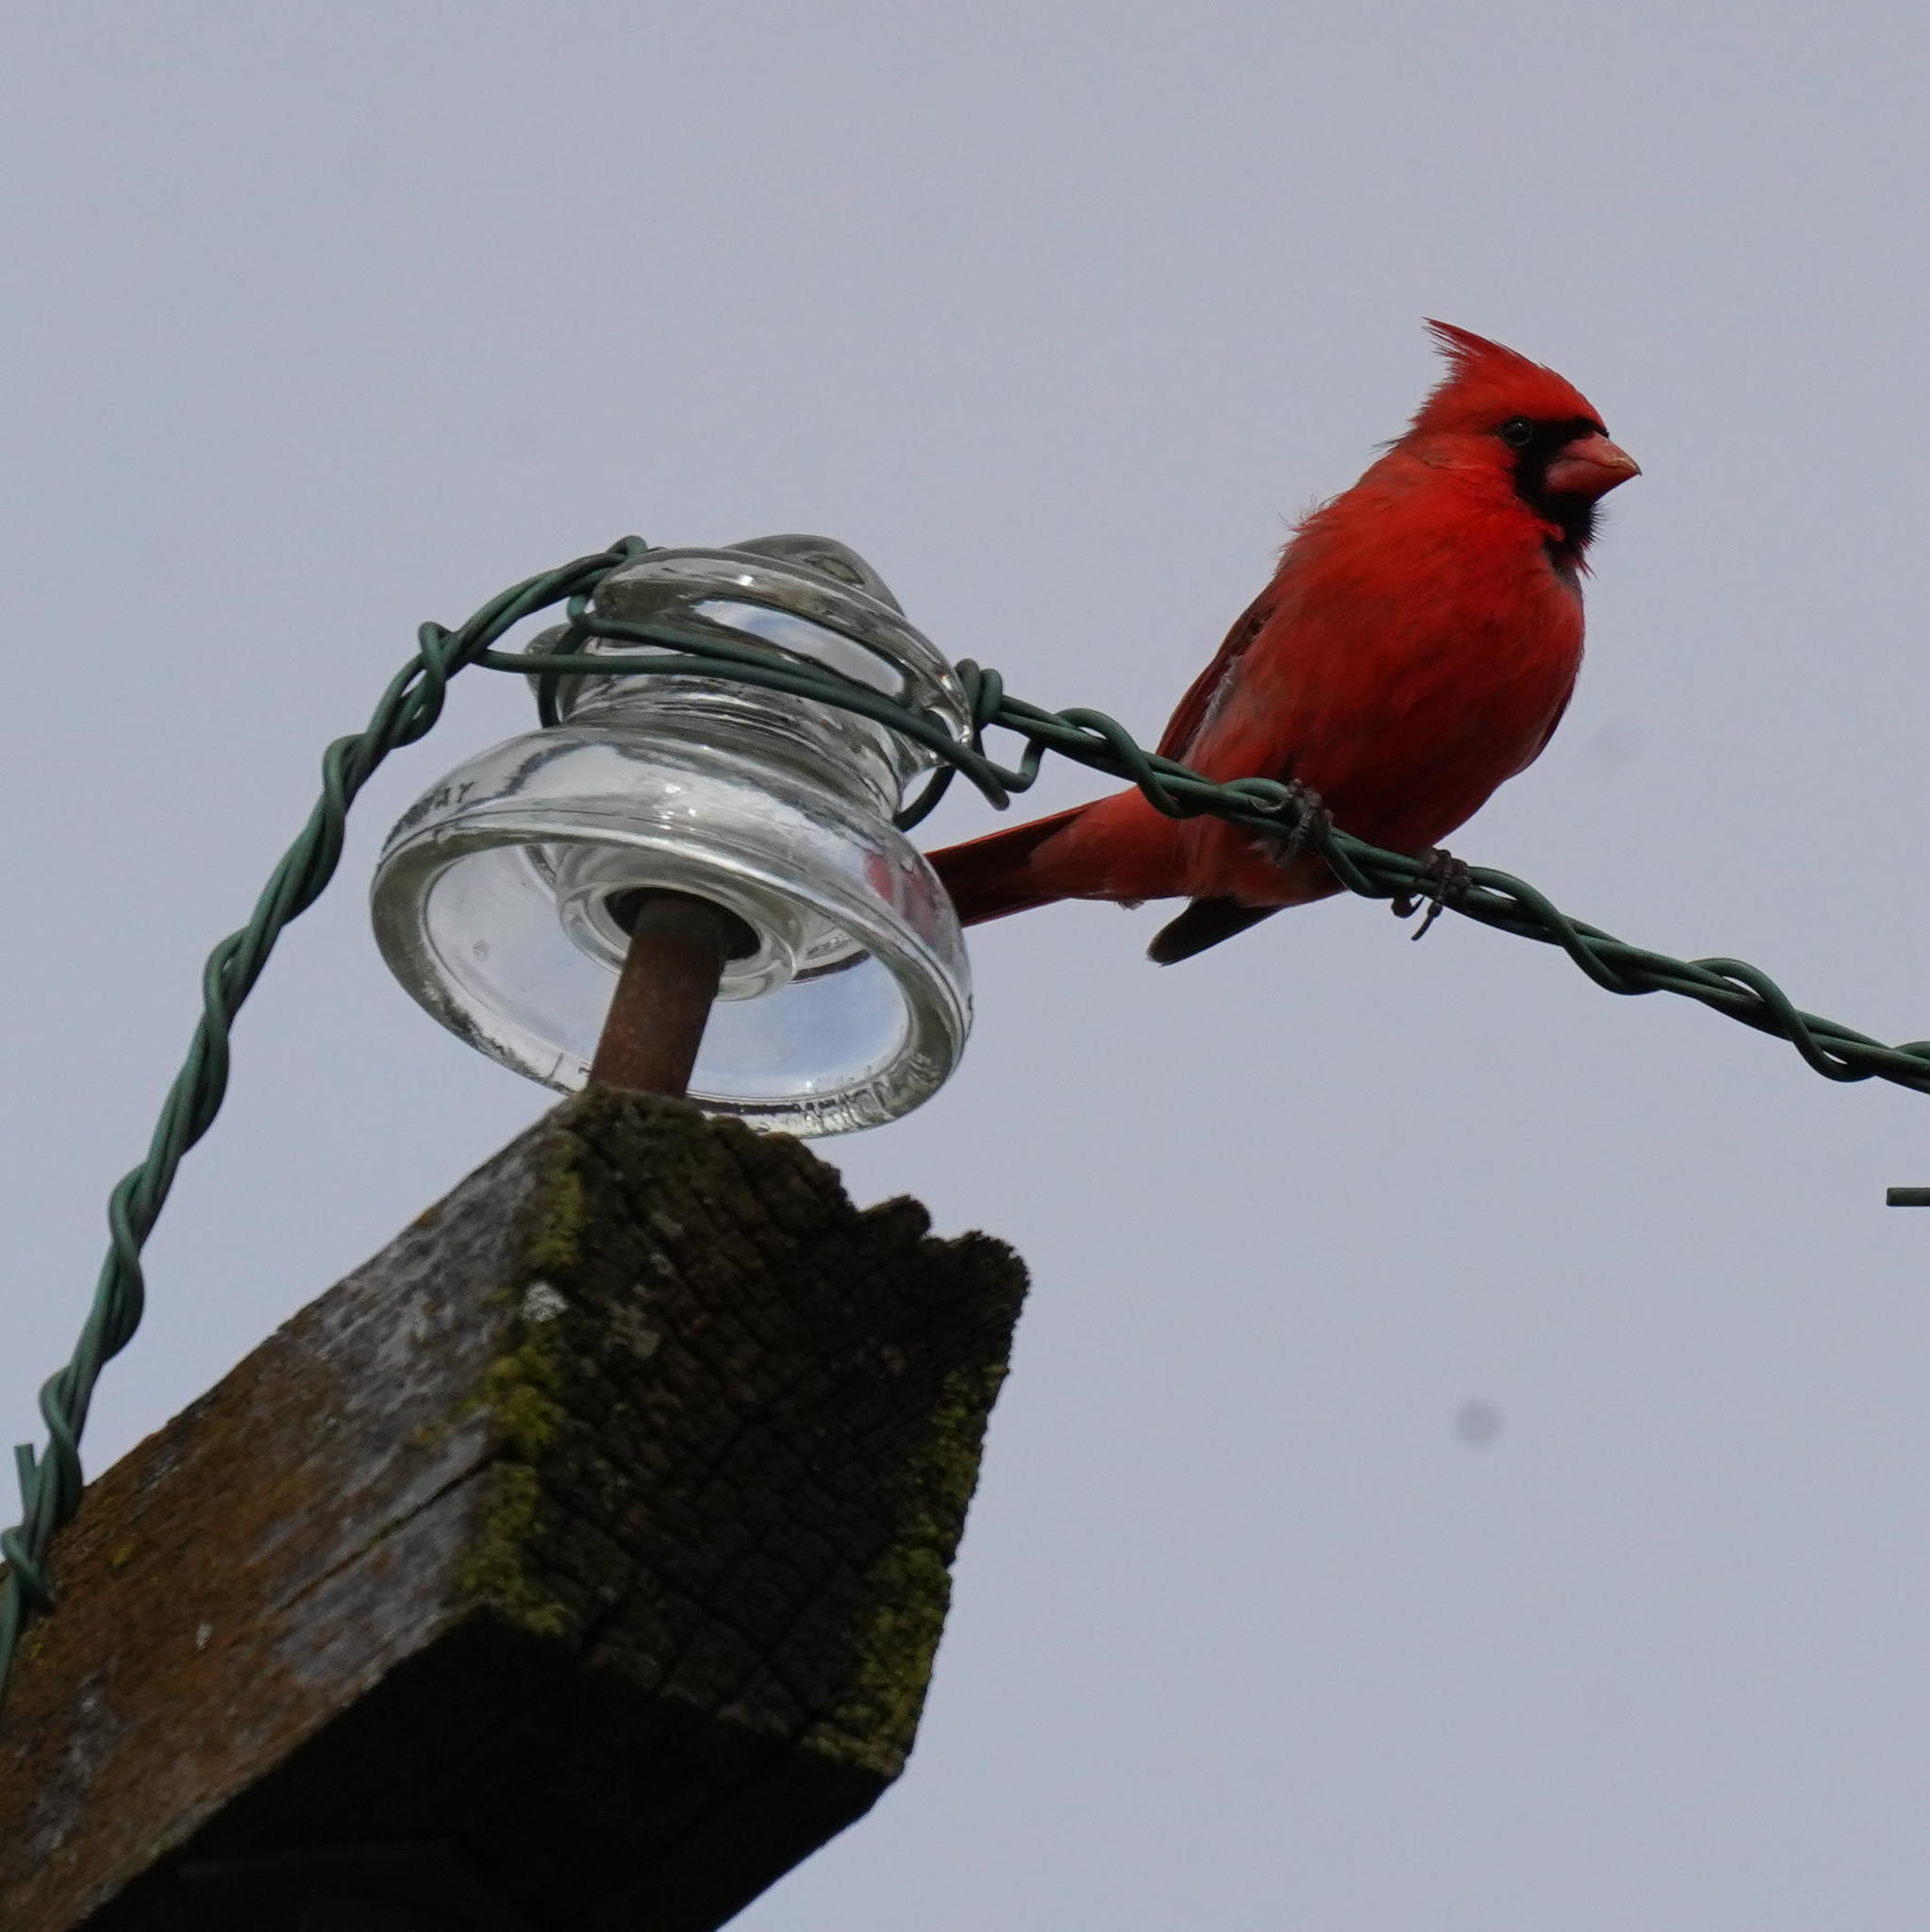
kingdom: Animalia
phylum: Chordata
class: Aves
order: Passeriformes
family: Cardinalidae
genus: Cardinalis
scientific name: Cardinalis cardinalis
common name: Northern cardinal
